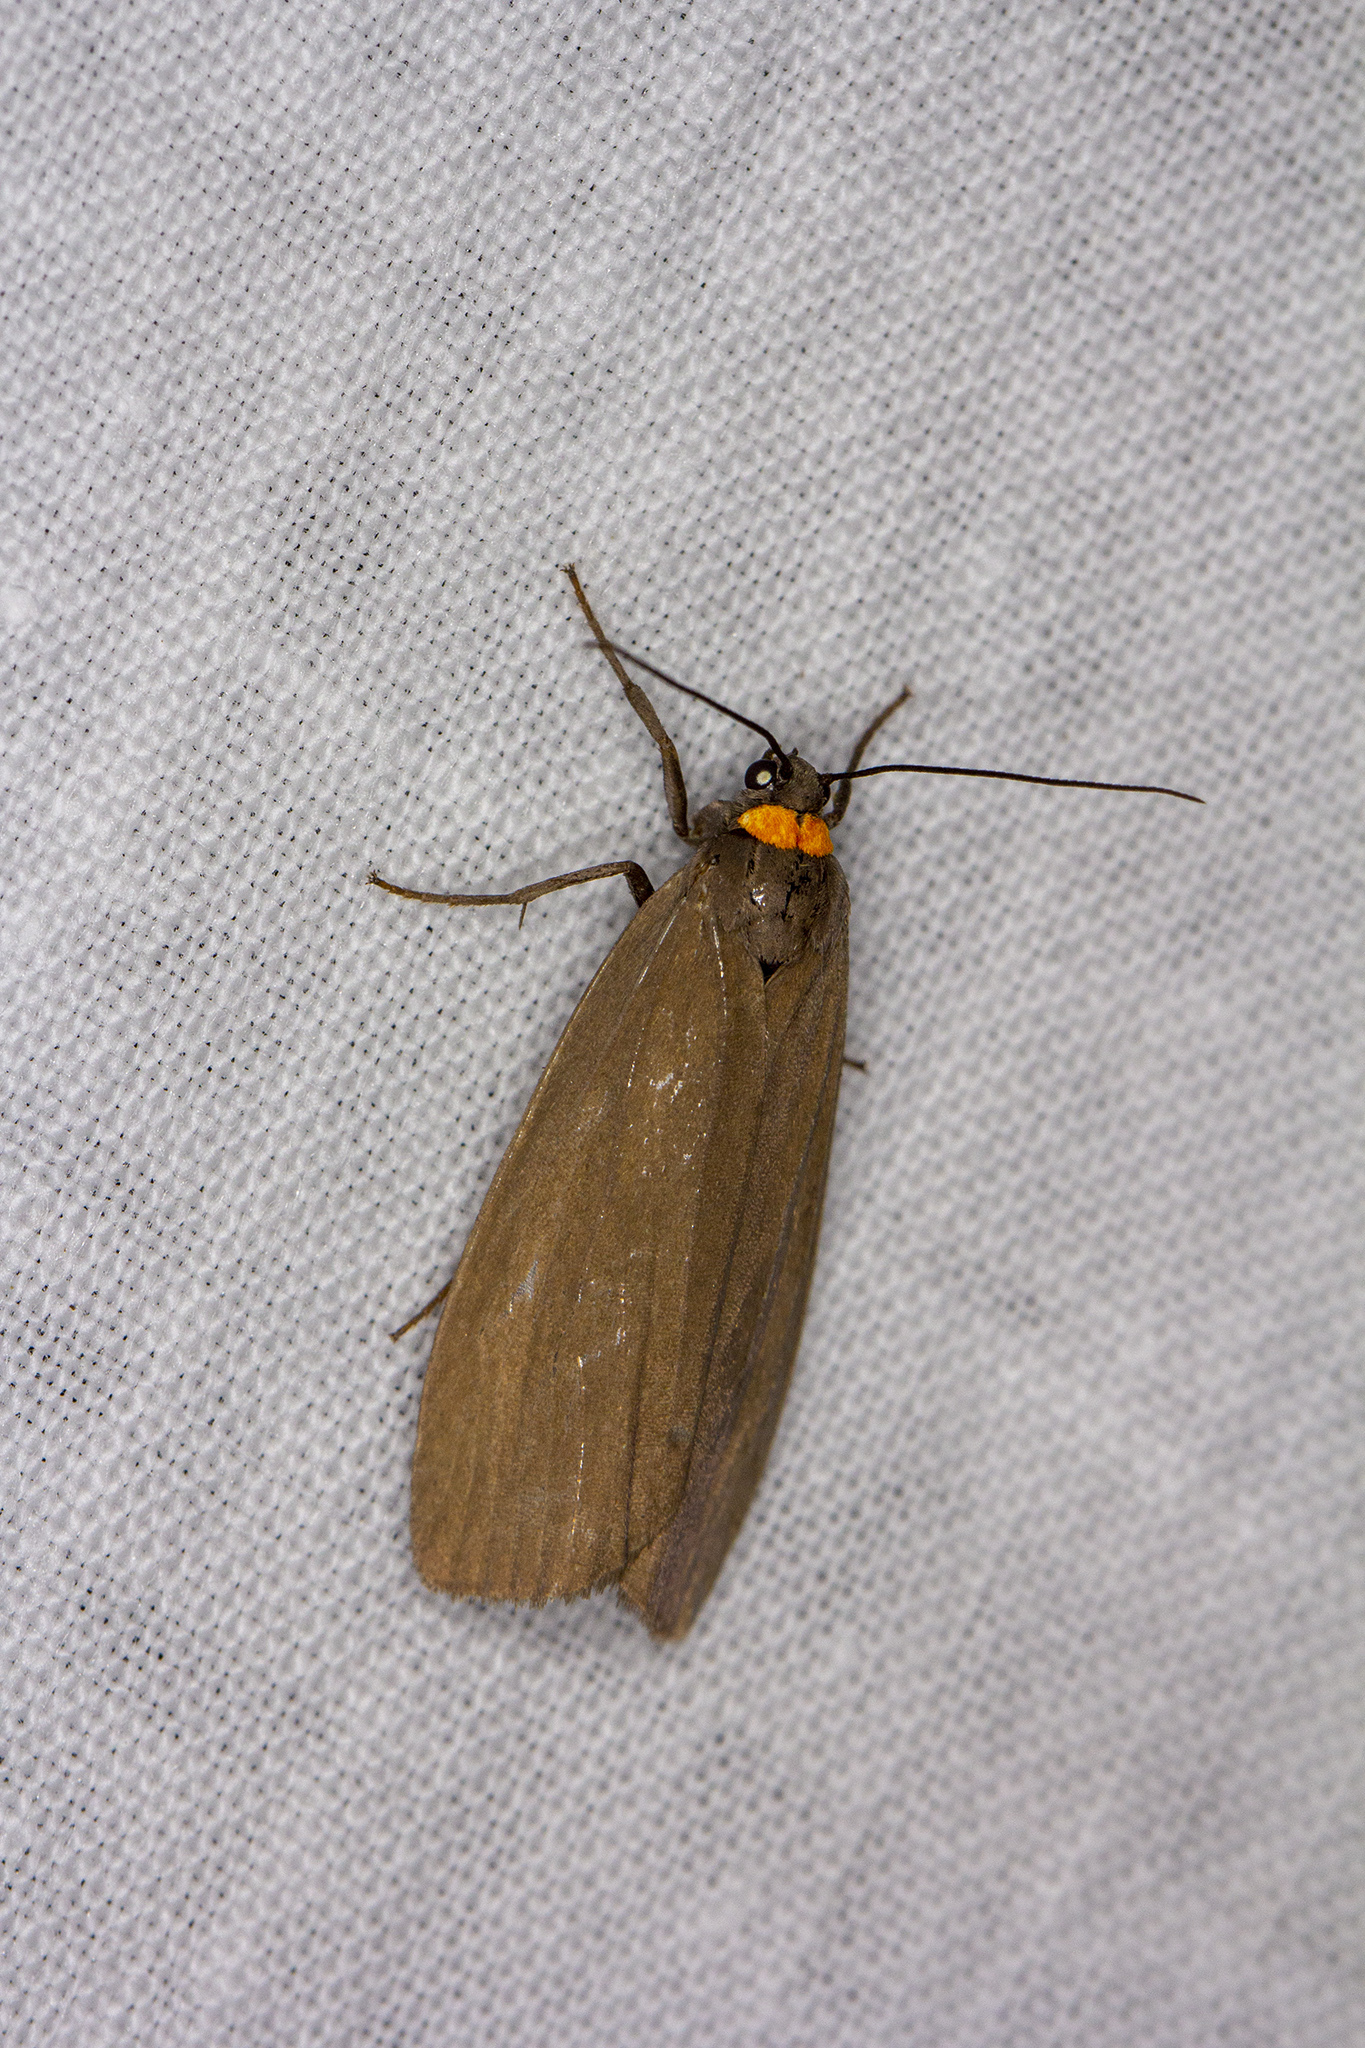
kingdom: Animalia
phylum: Arthropoda
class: Insecta
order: Lepidoptera
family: Erebidae
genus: Atolmis
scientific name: Atolmis rubricollis
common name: Red-necked footman
